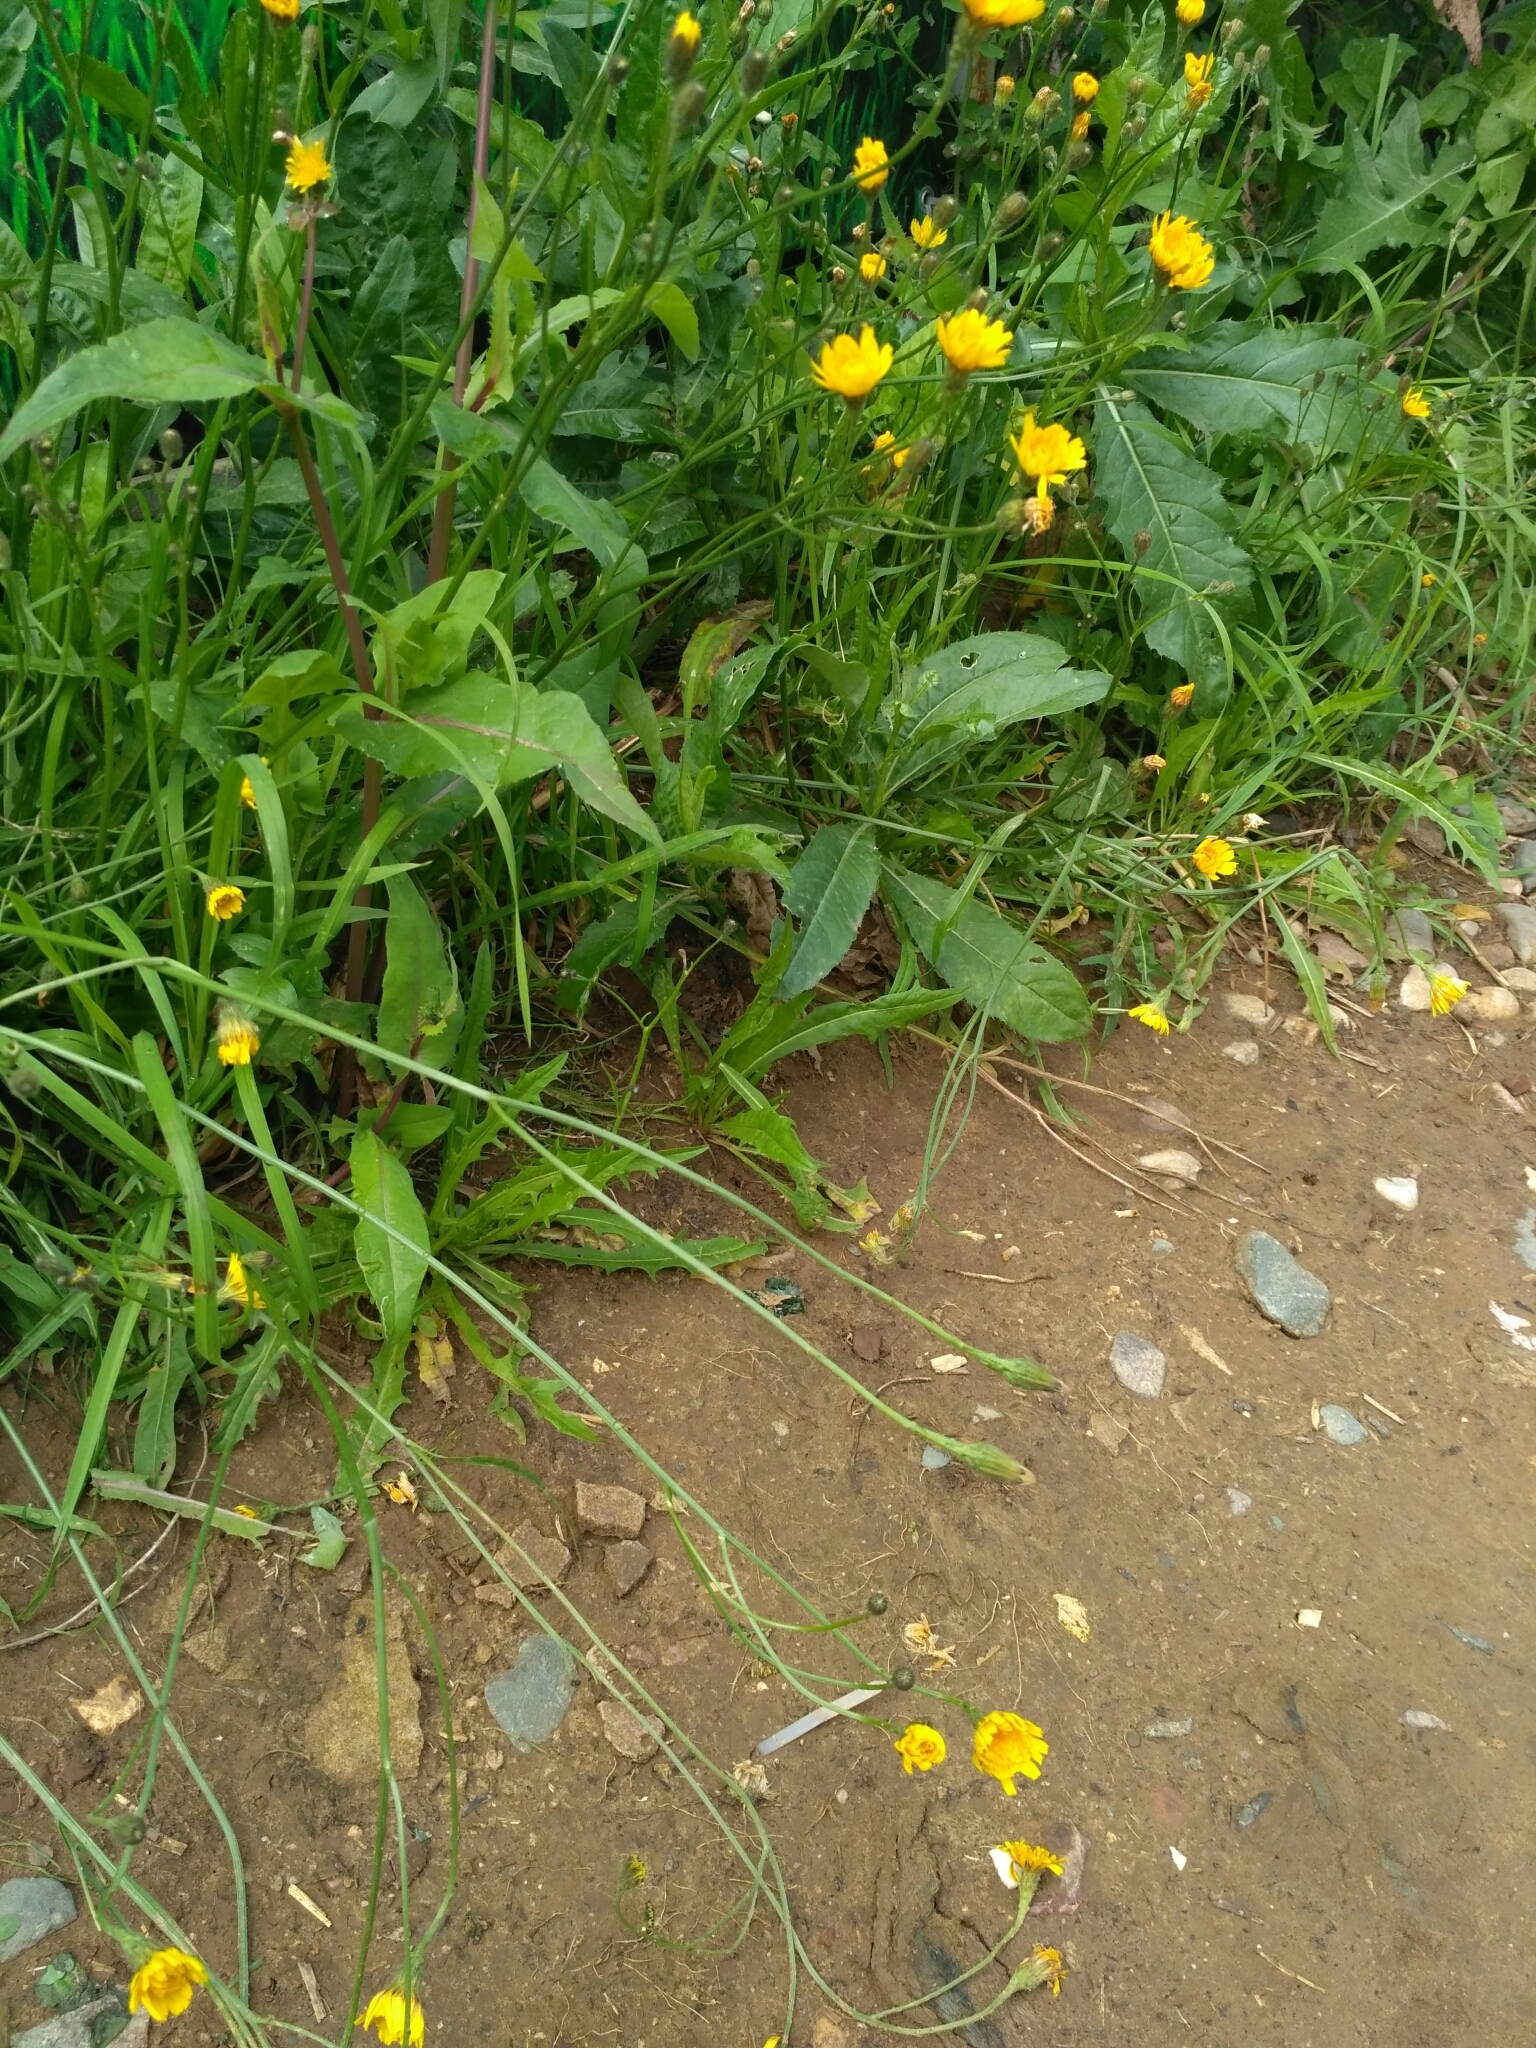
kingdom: Plantae
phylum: Tracheophyta
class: Magnoliopsida
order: Asterales
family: Asteraceae
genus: Scorzoneroides
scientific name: Scorzoneroides autumnalis
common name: Autumn hawkbit
